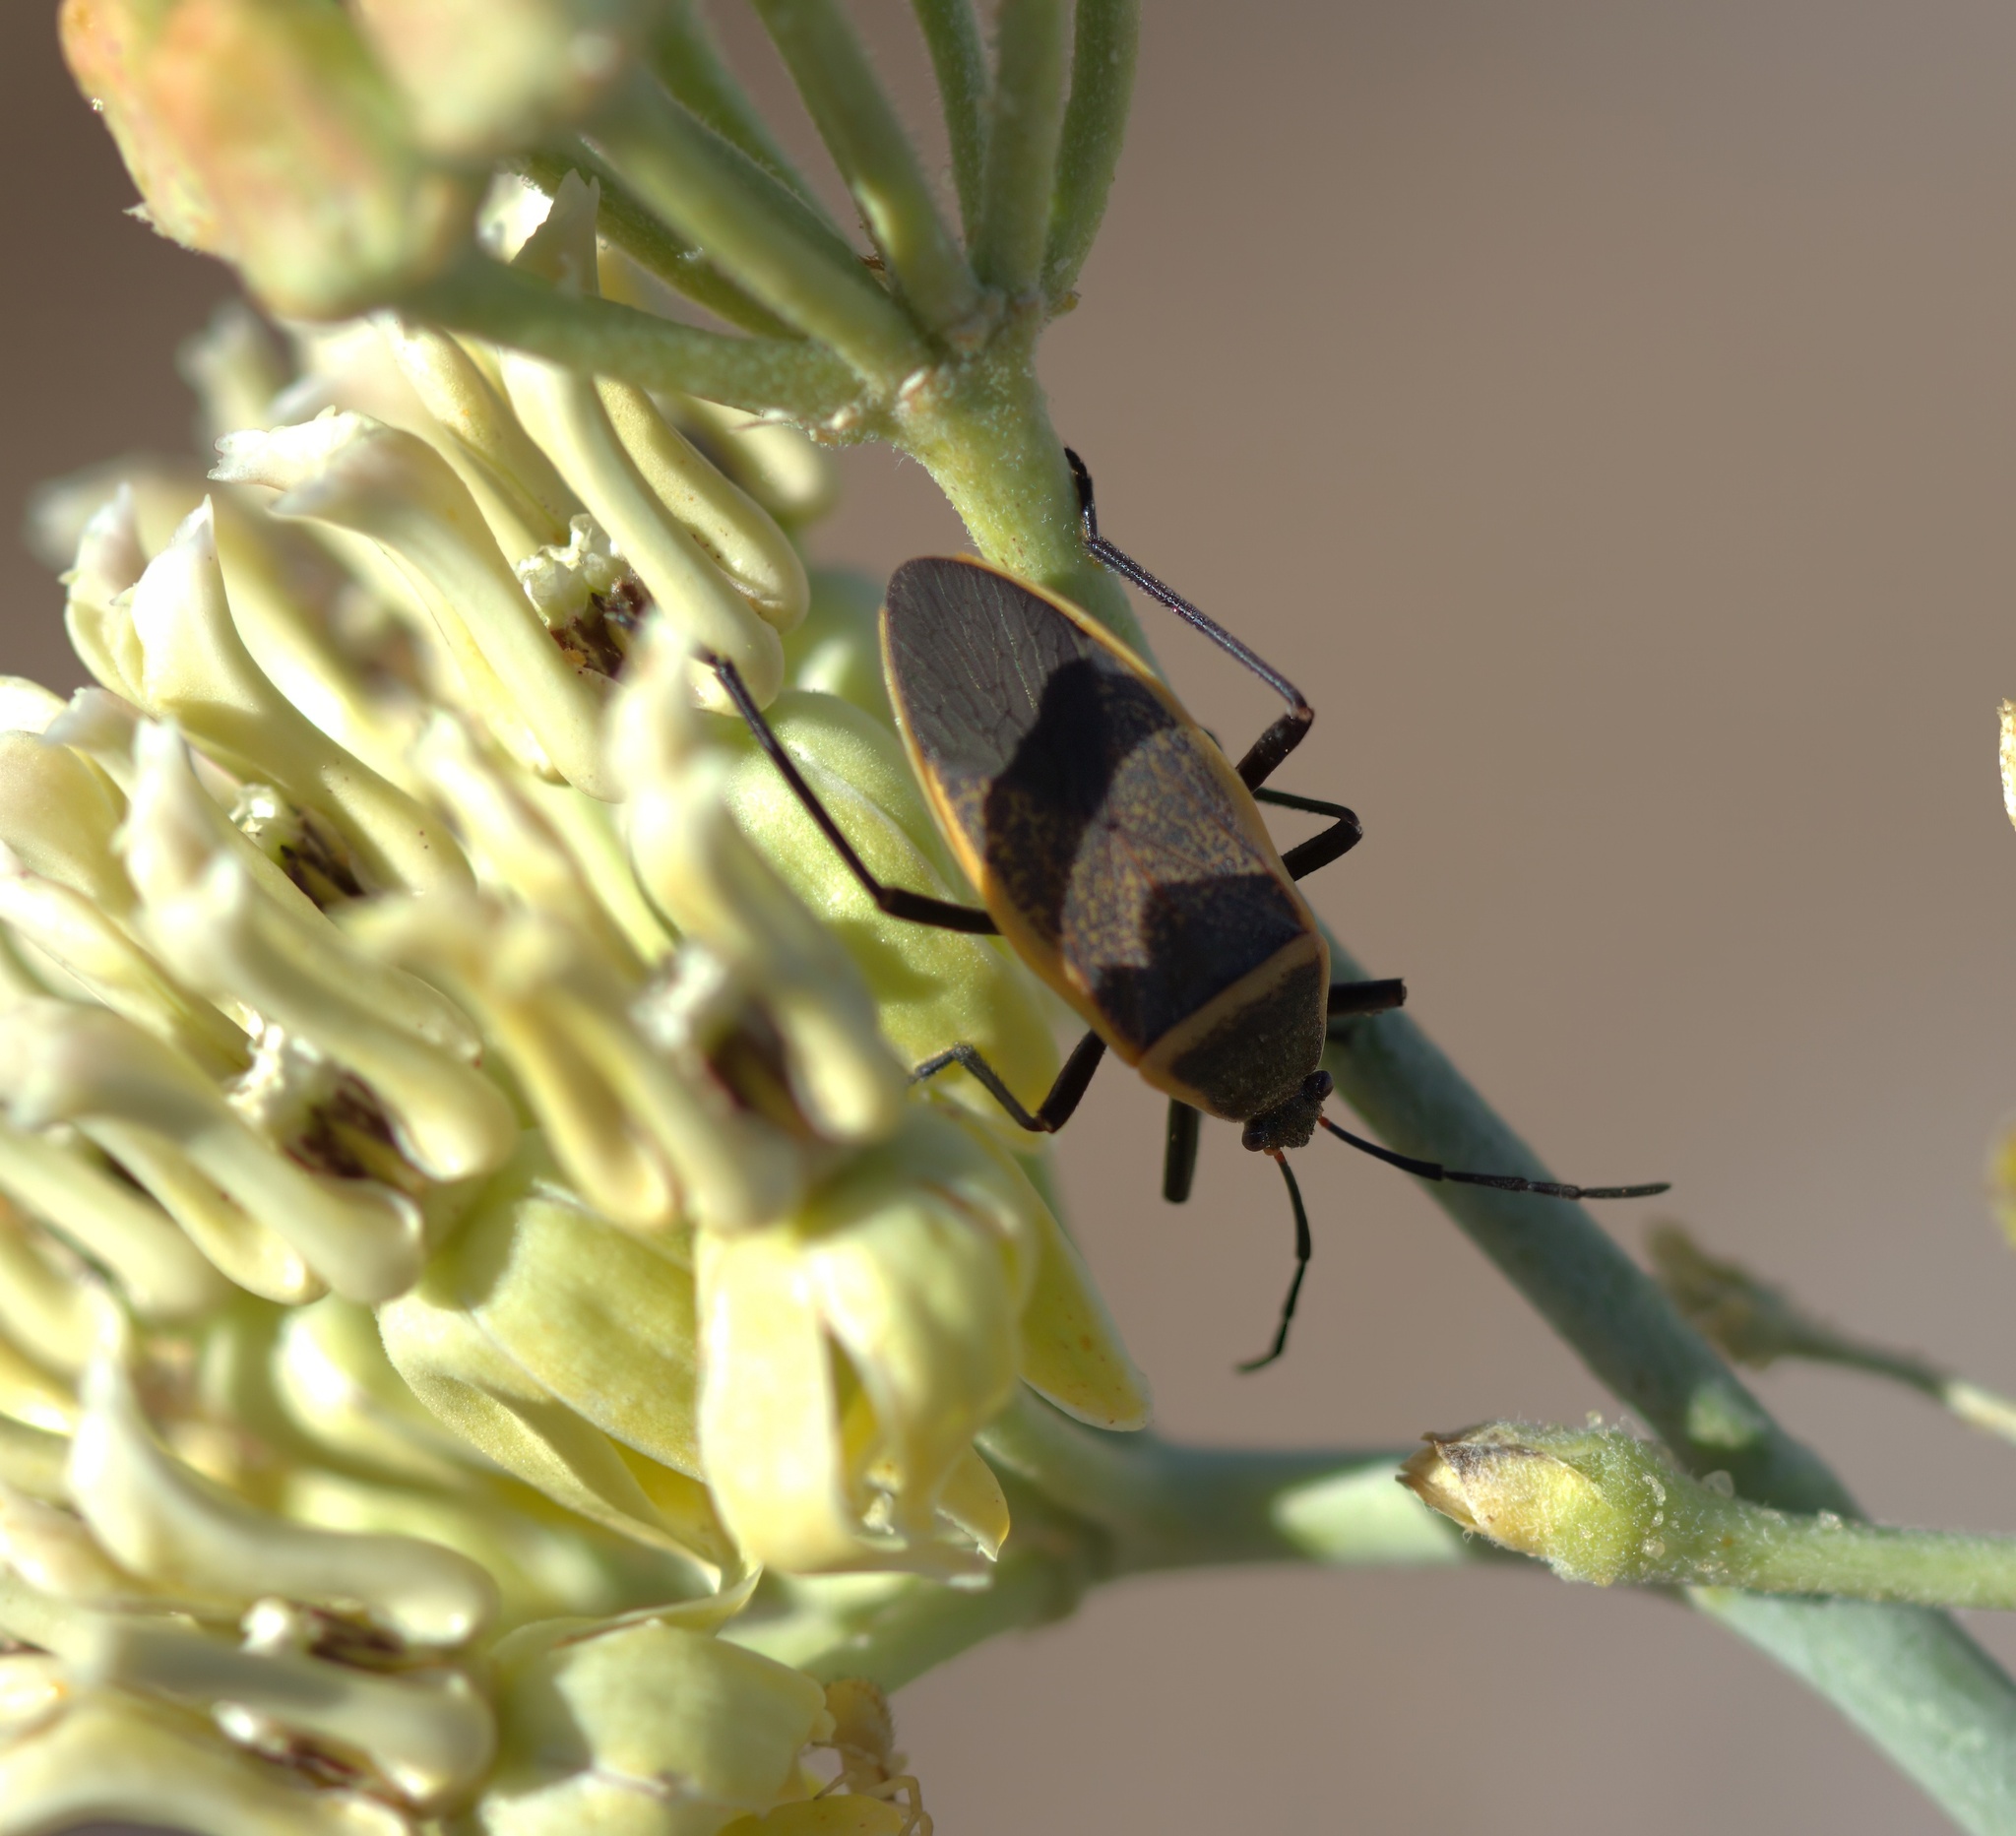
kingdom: Animalia
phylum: Arthropoda
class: Insecta
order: Hemiptera
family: Largidae
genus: Largus
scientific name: Largus californicus
